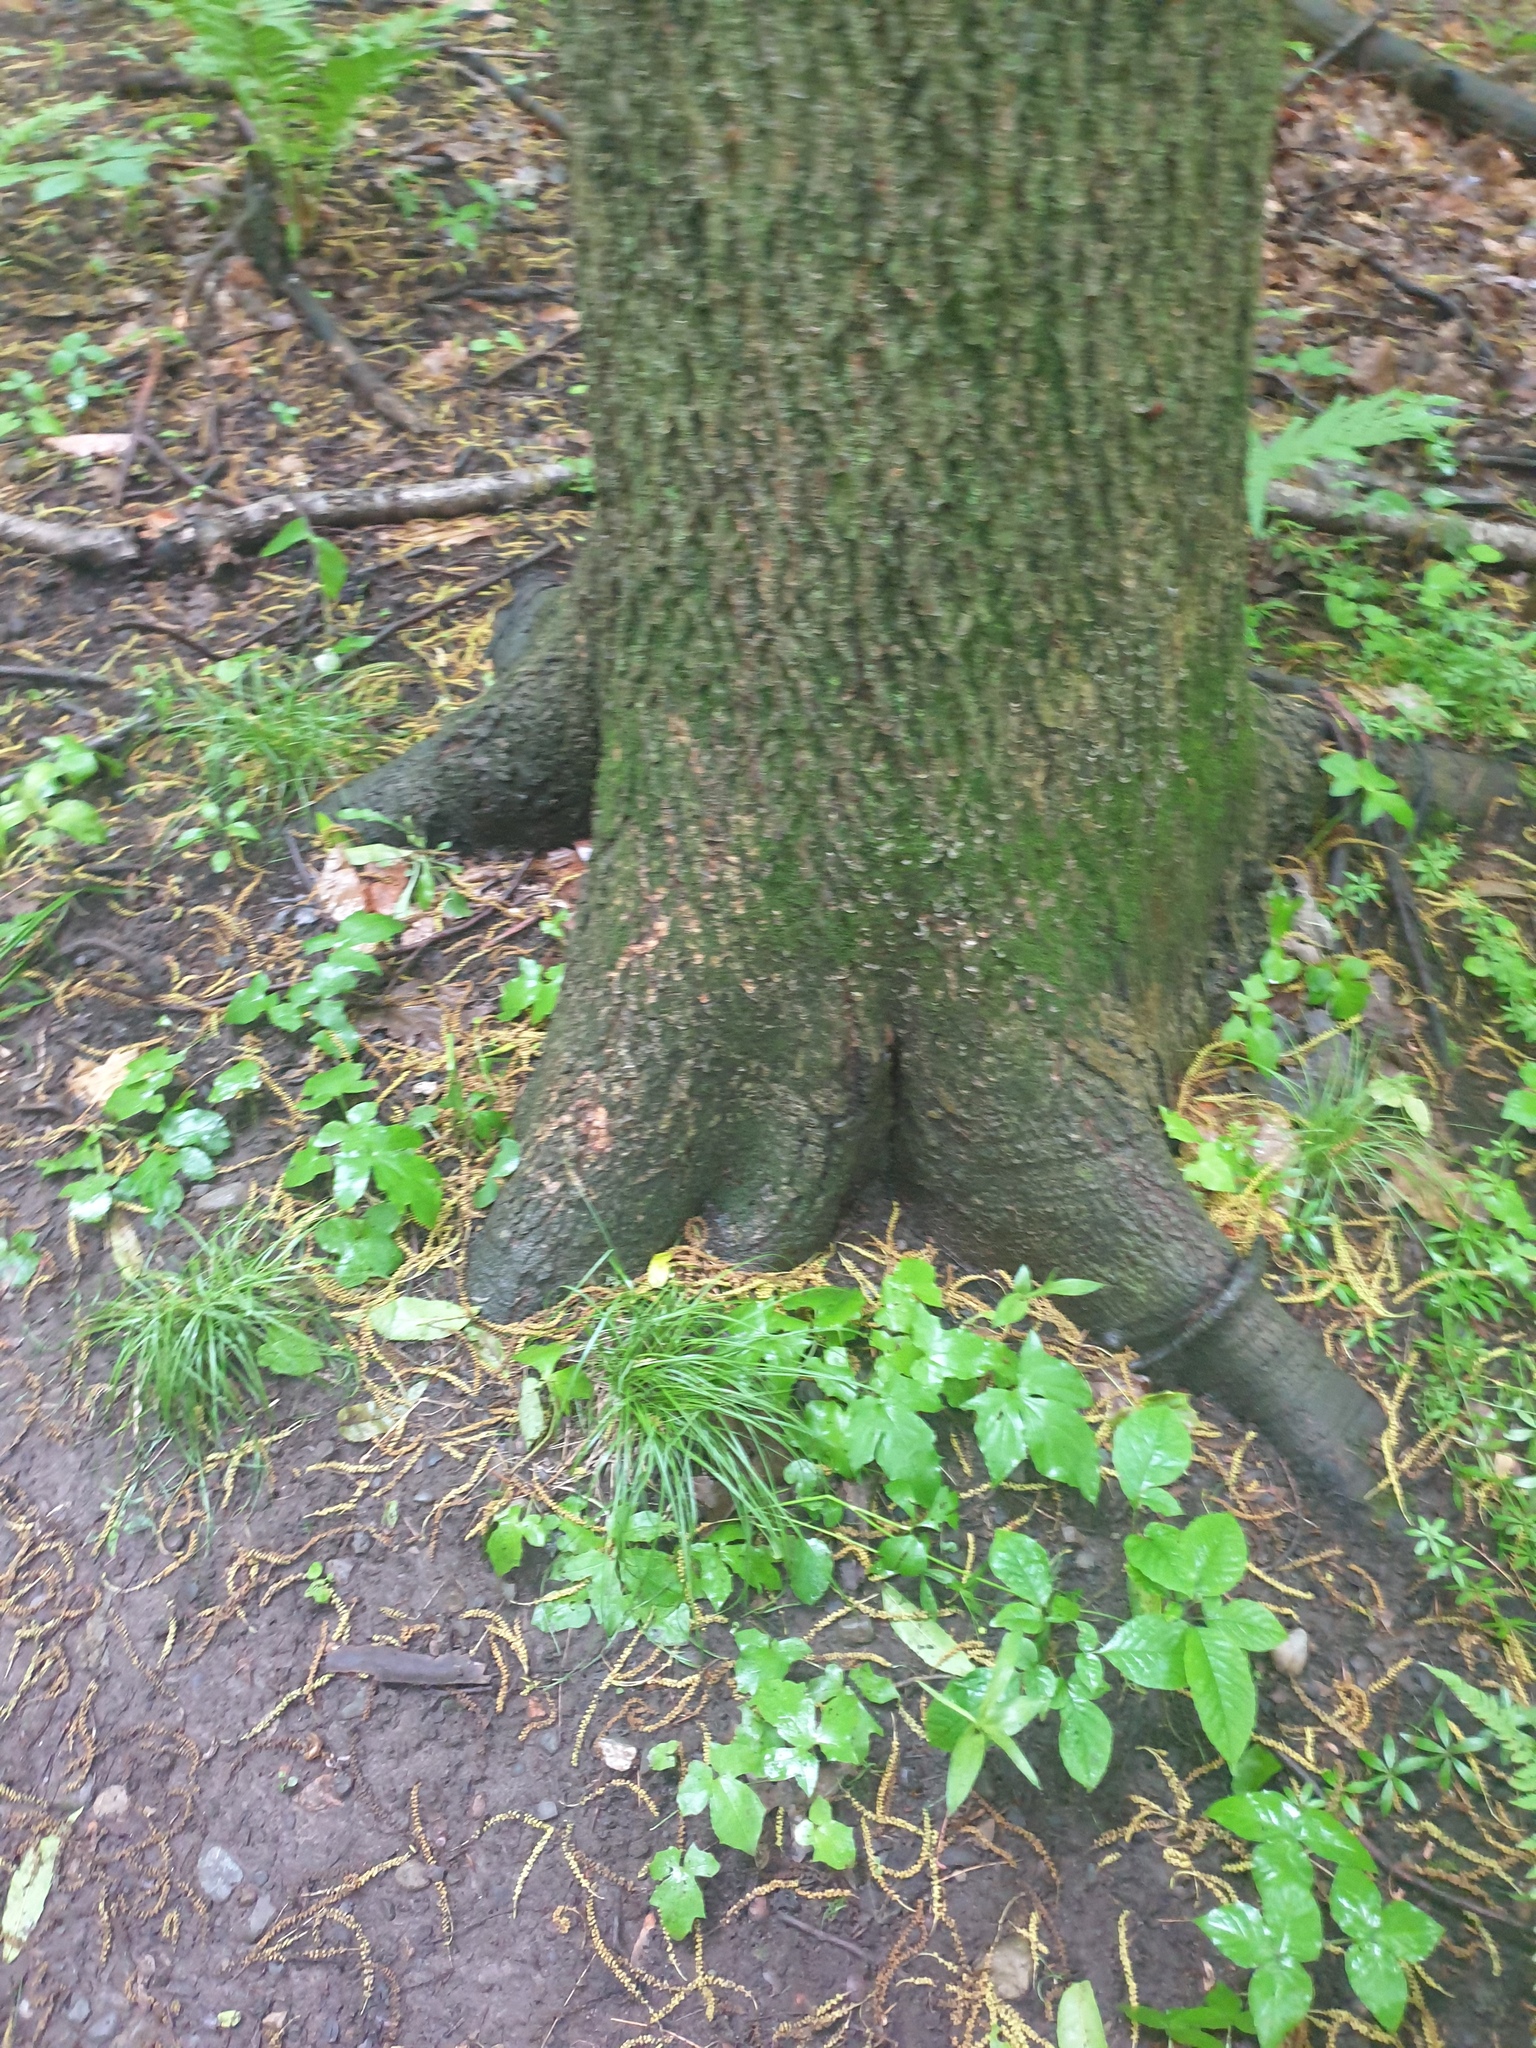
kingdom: Plantae
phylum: Tracheophyta
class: Magnoliopsida
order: Fagales
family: Juglandaceae
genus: Carya
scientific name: Carya cordiformis
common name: Bitternut hickory
